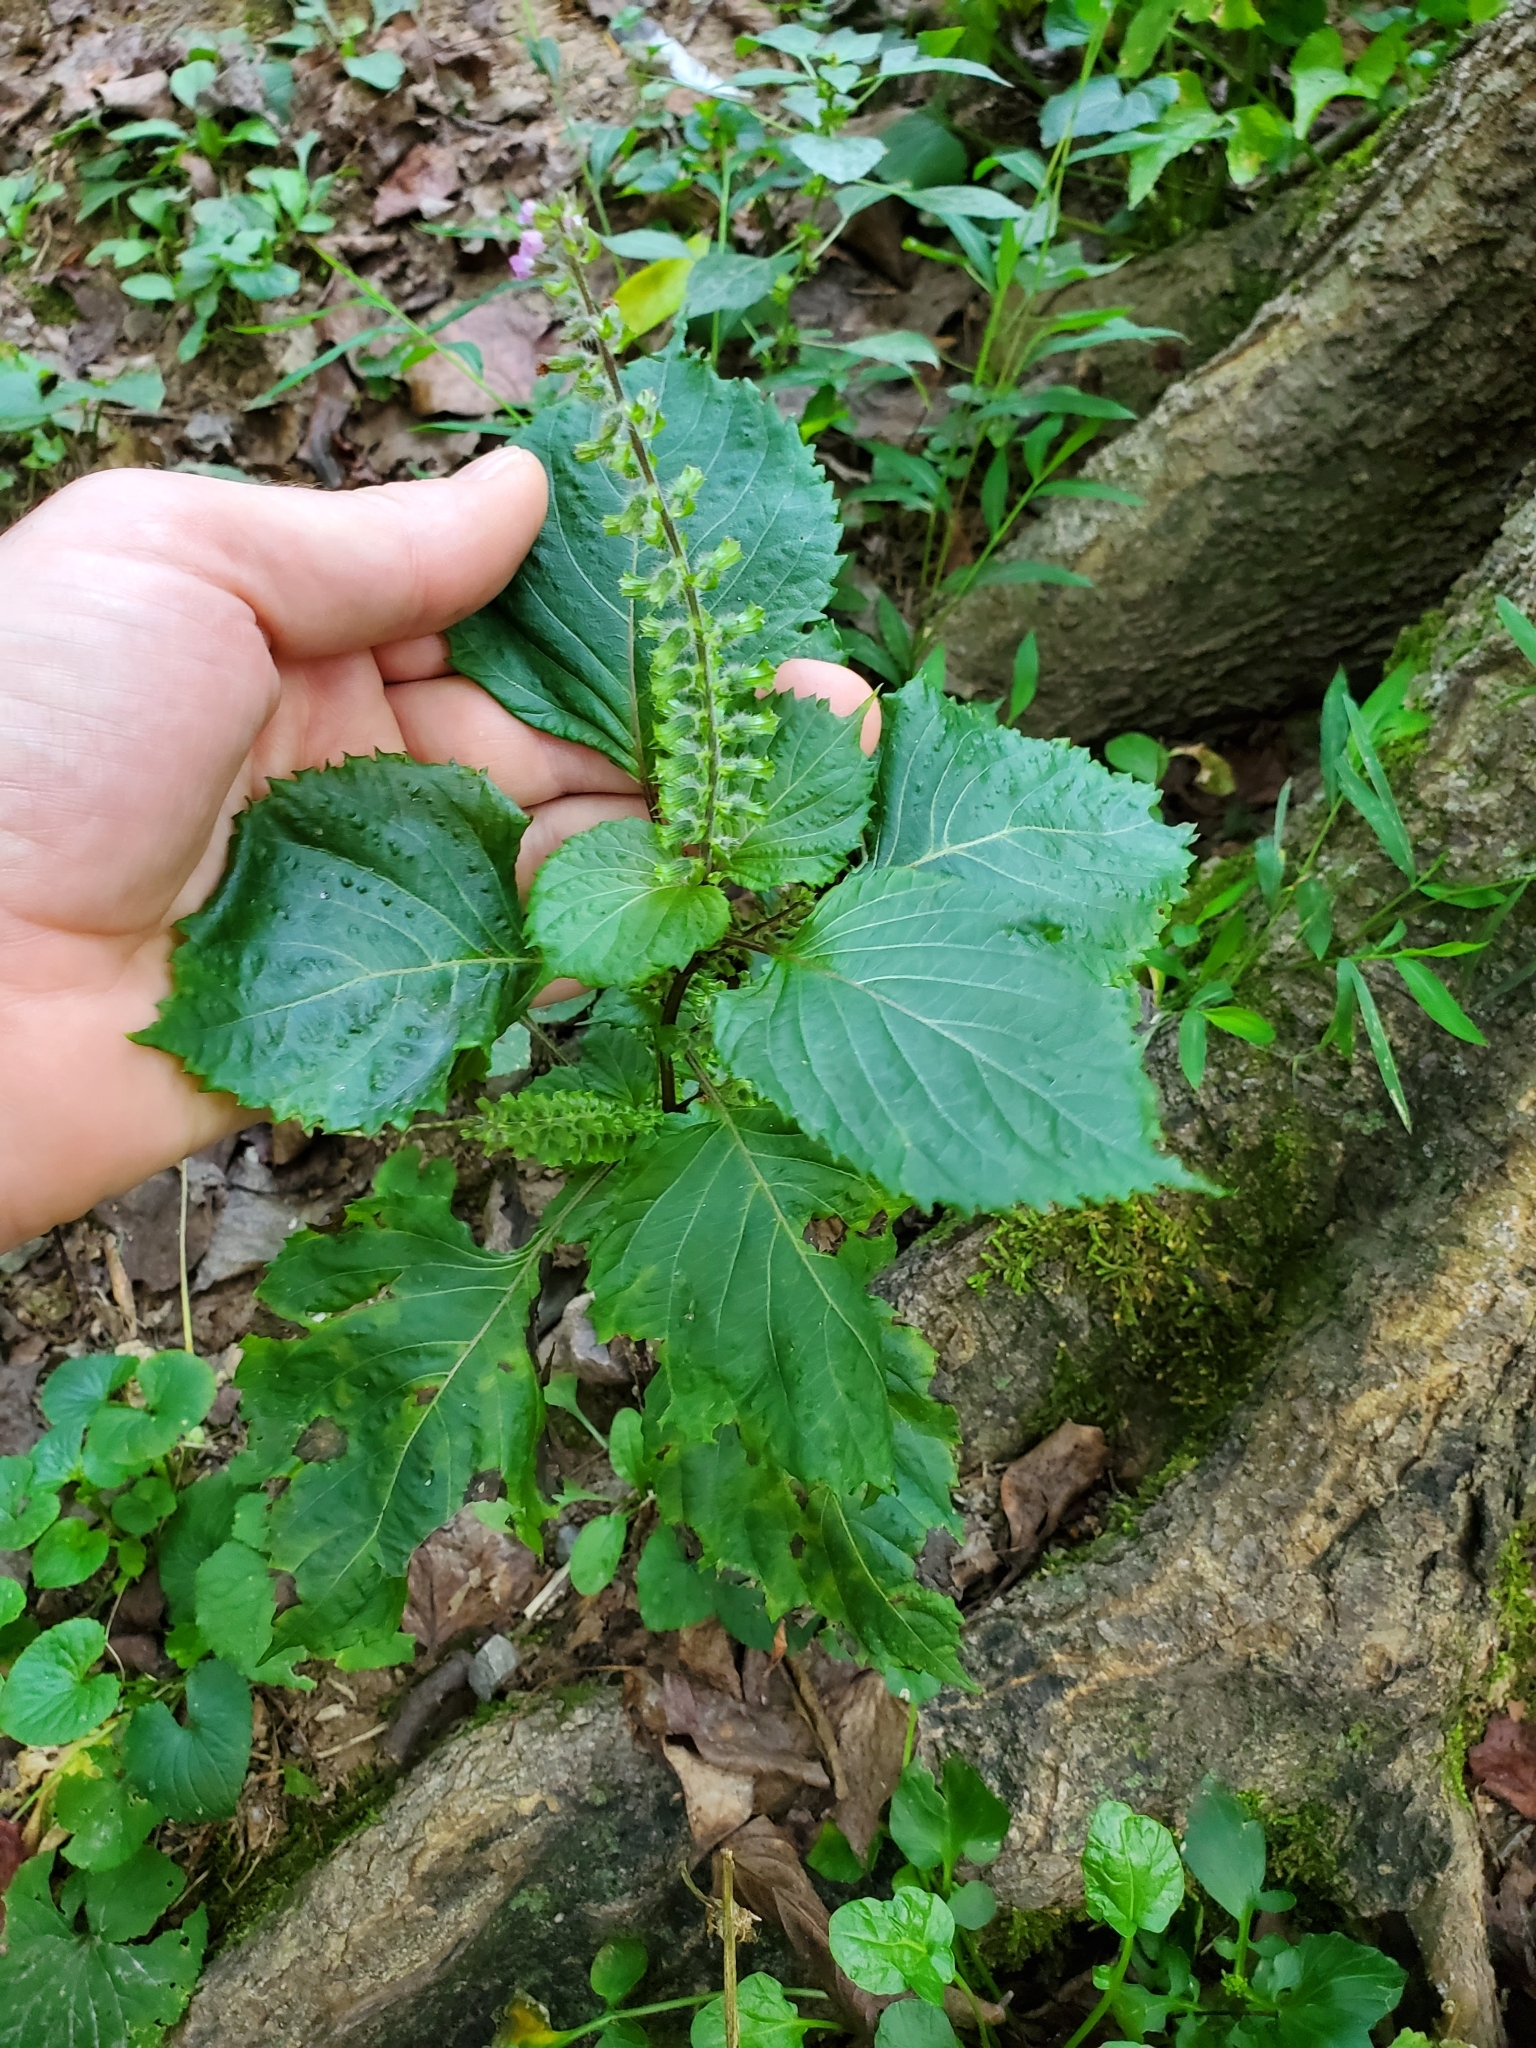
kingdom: Plantae
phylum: Tracheophyta
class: Magnoliopsida
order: Lamiales
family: Lamiaceae
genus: Perilla
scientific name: Perilla frutescens
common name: Perilla
